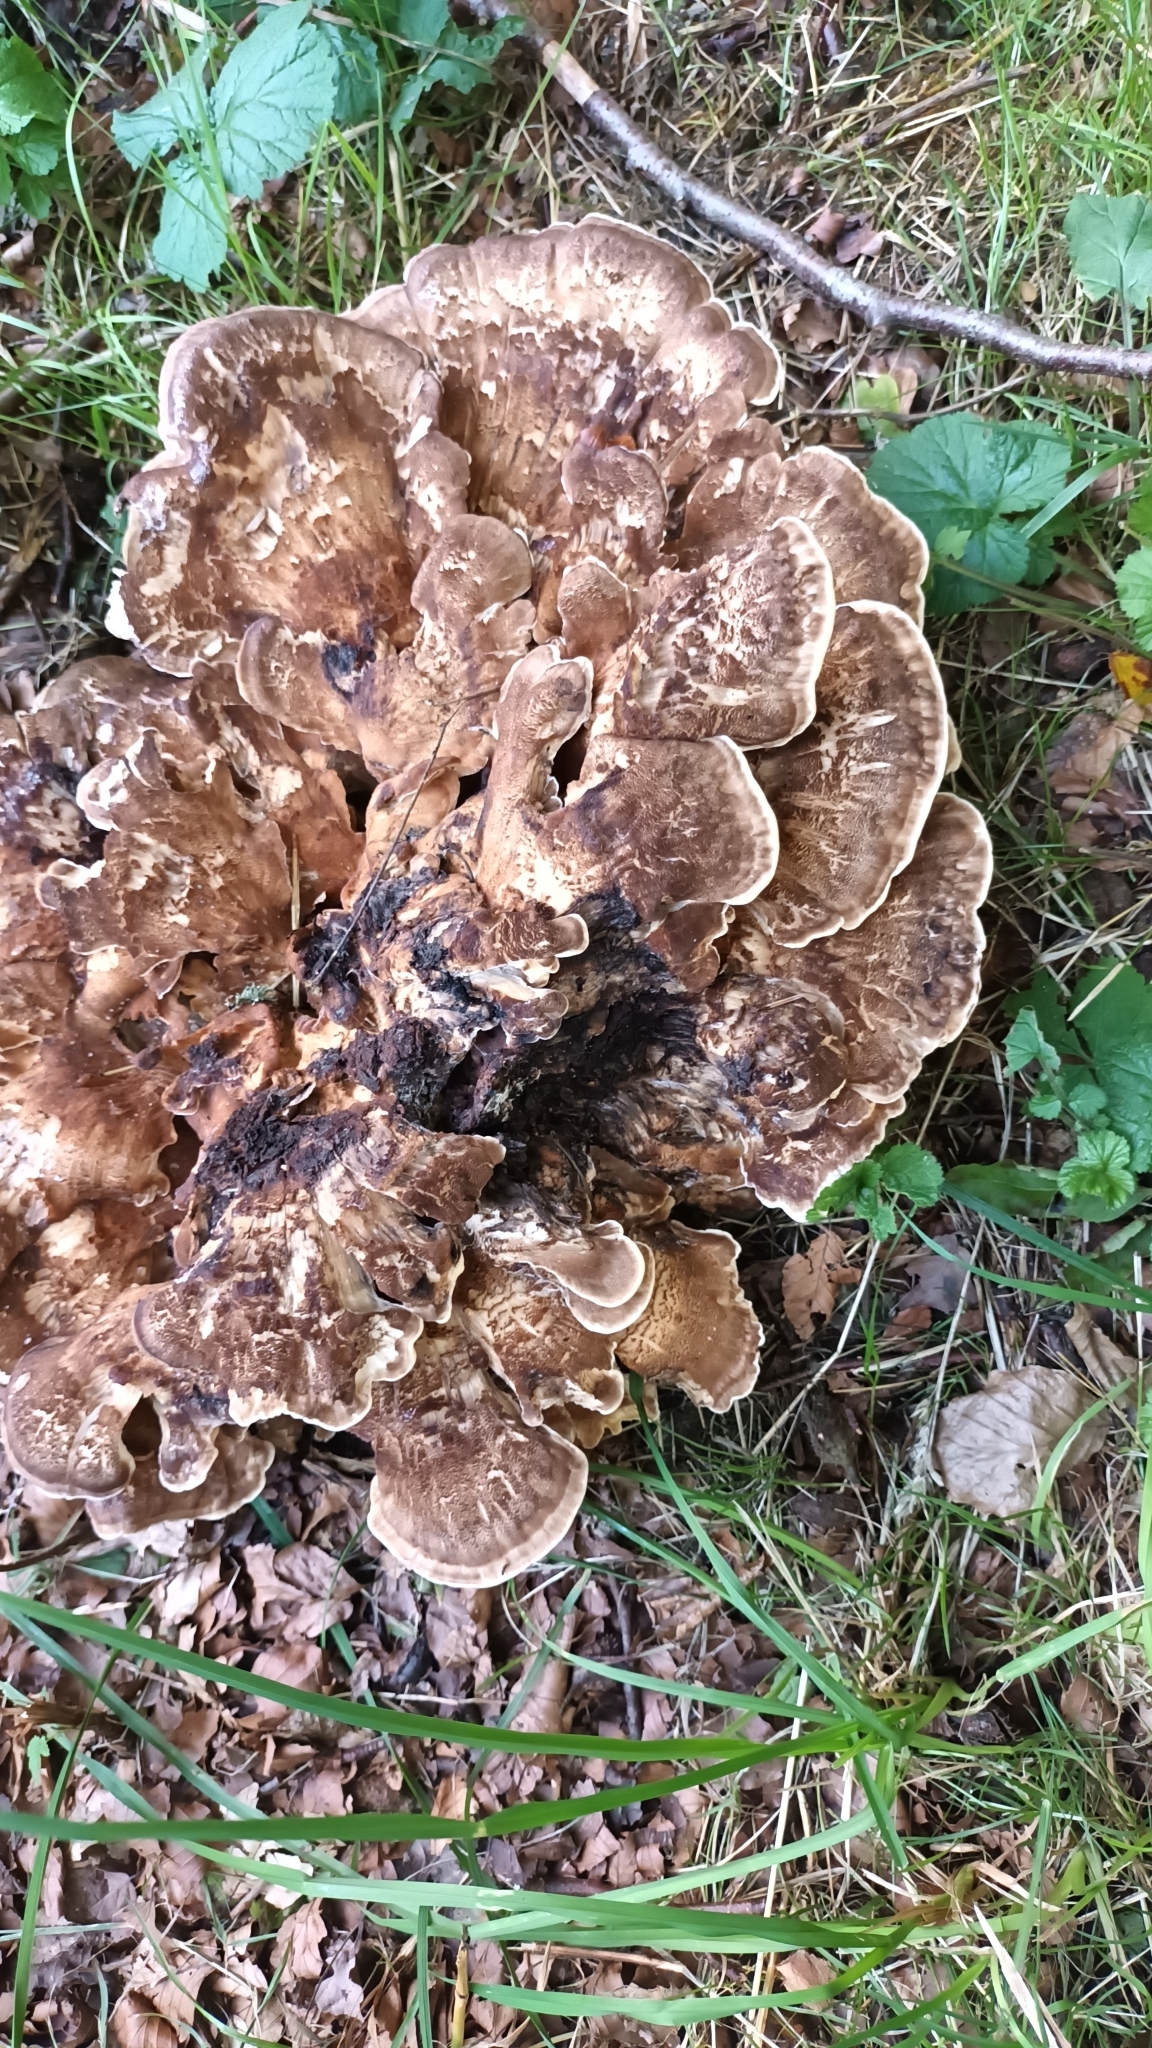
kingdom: Fungi
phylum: Basidiomycota
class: Agaricomycetes
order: Polyporales
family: Meripilaceae
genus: Meripilus
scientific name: Meripilus giganteus
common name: Giant polypore
